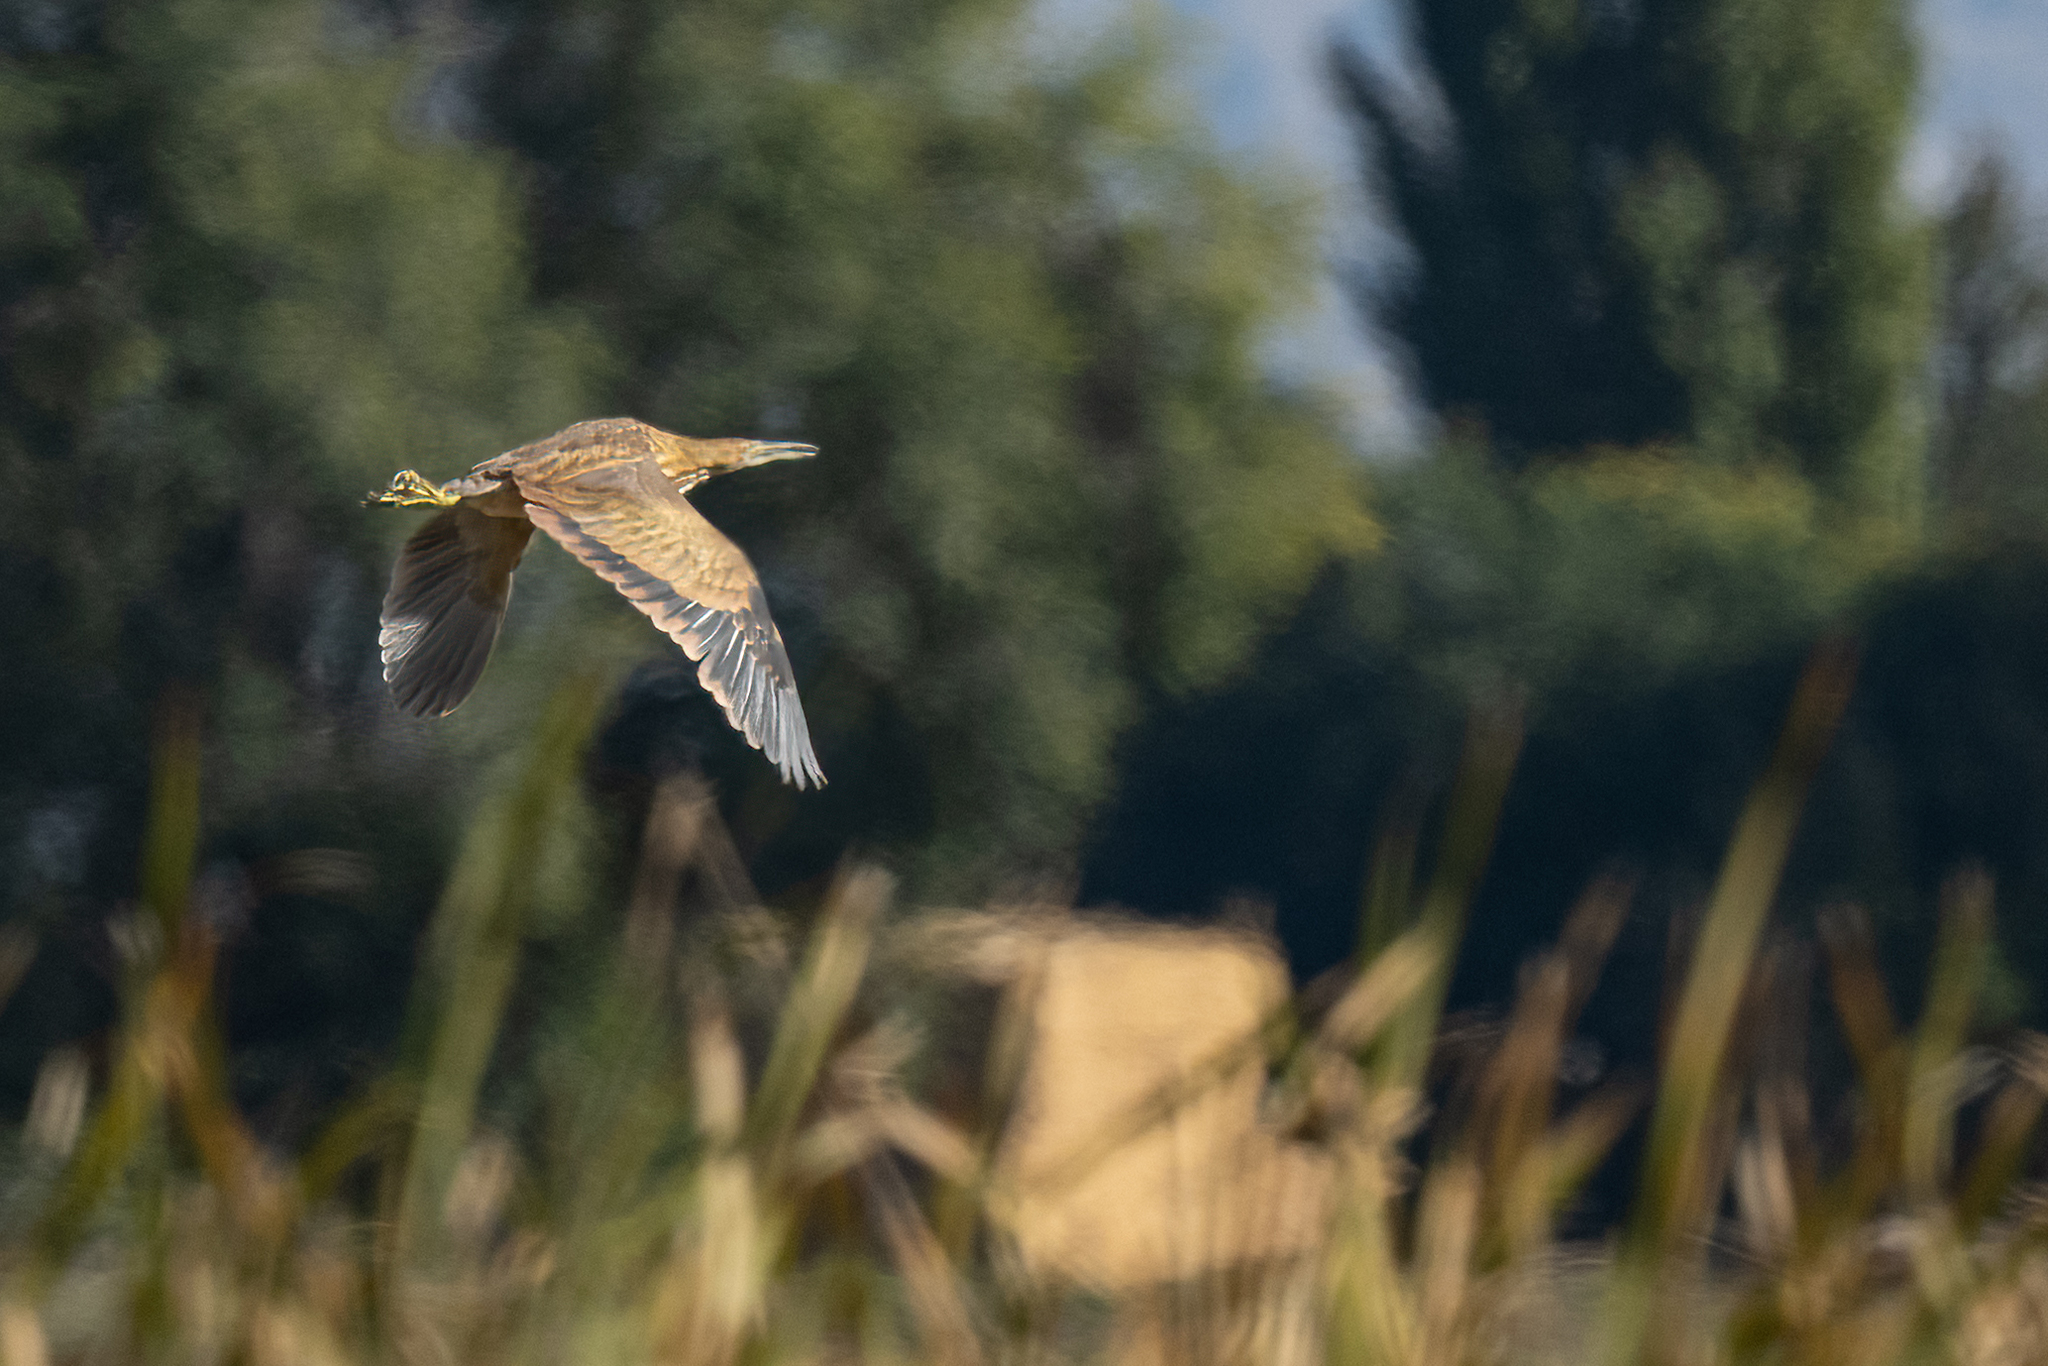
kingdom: Animalia
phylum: Chordata
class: Aves
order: Pelecaniformes
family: Ardeidae
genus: Botaurus
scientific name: Botaurus lentiginosus
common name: American bittern
